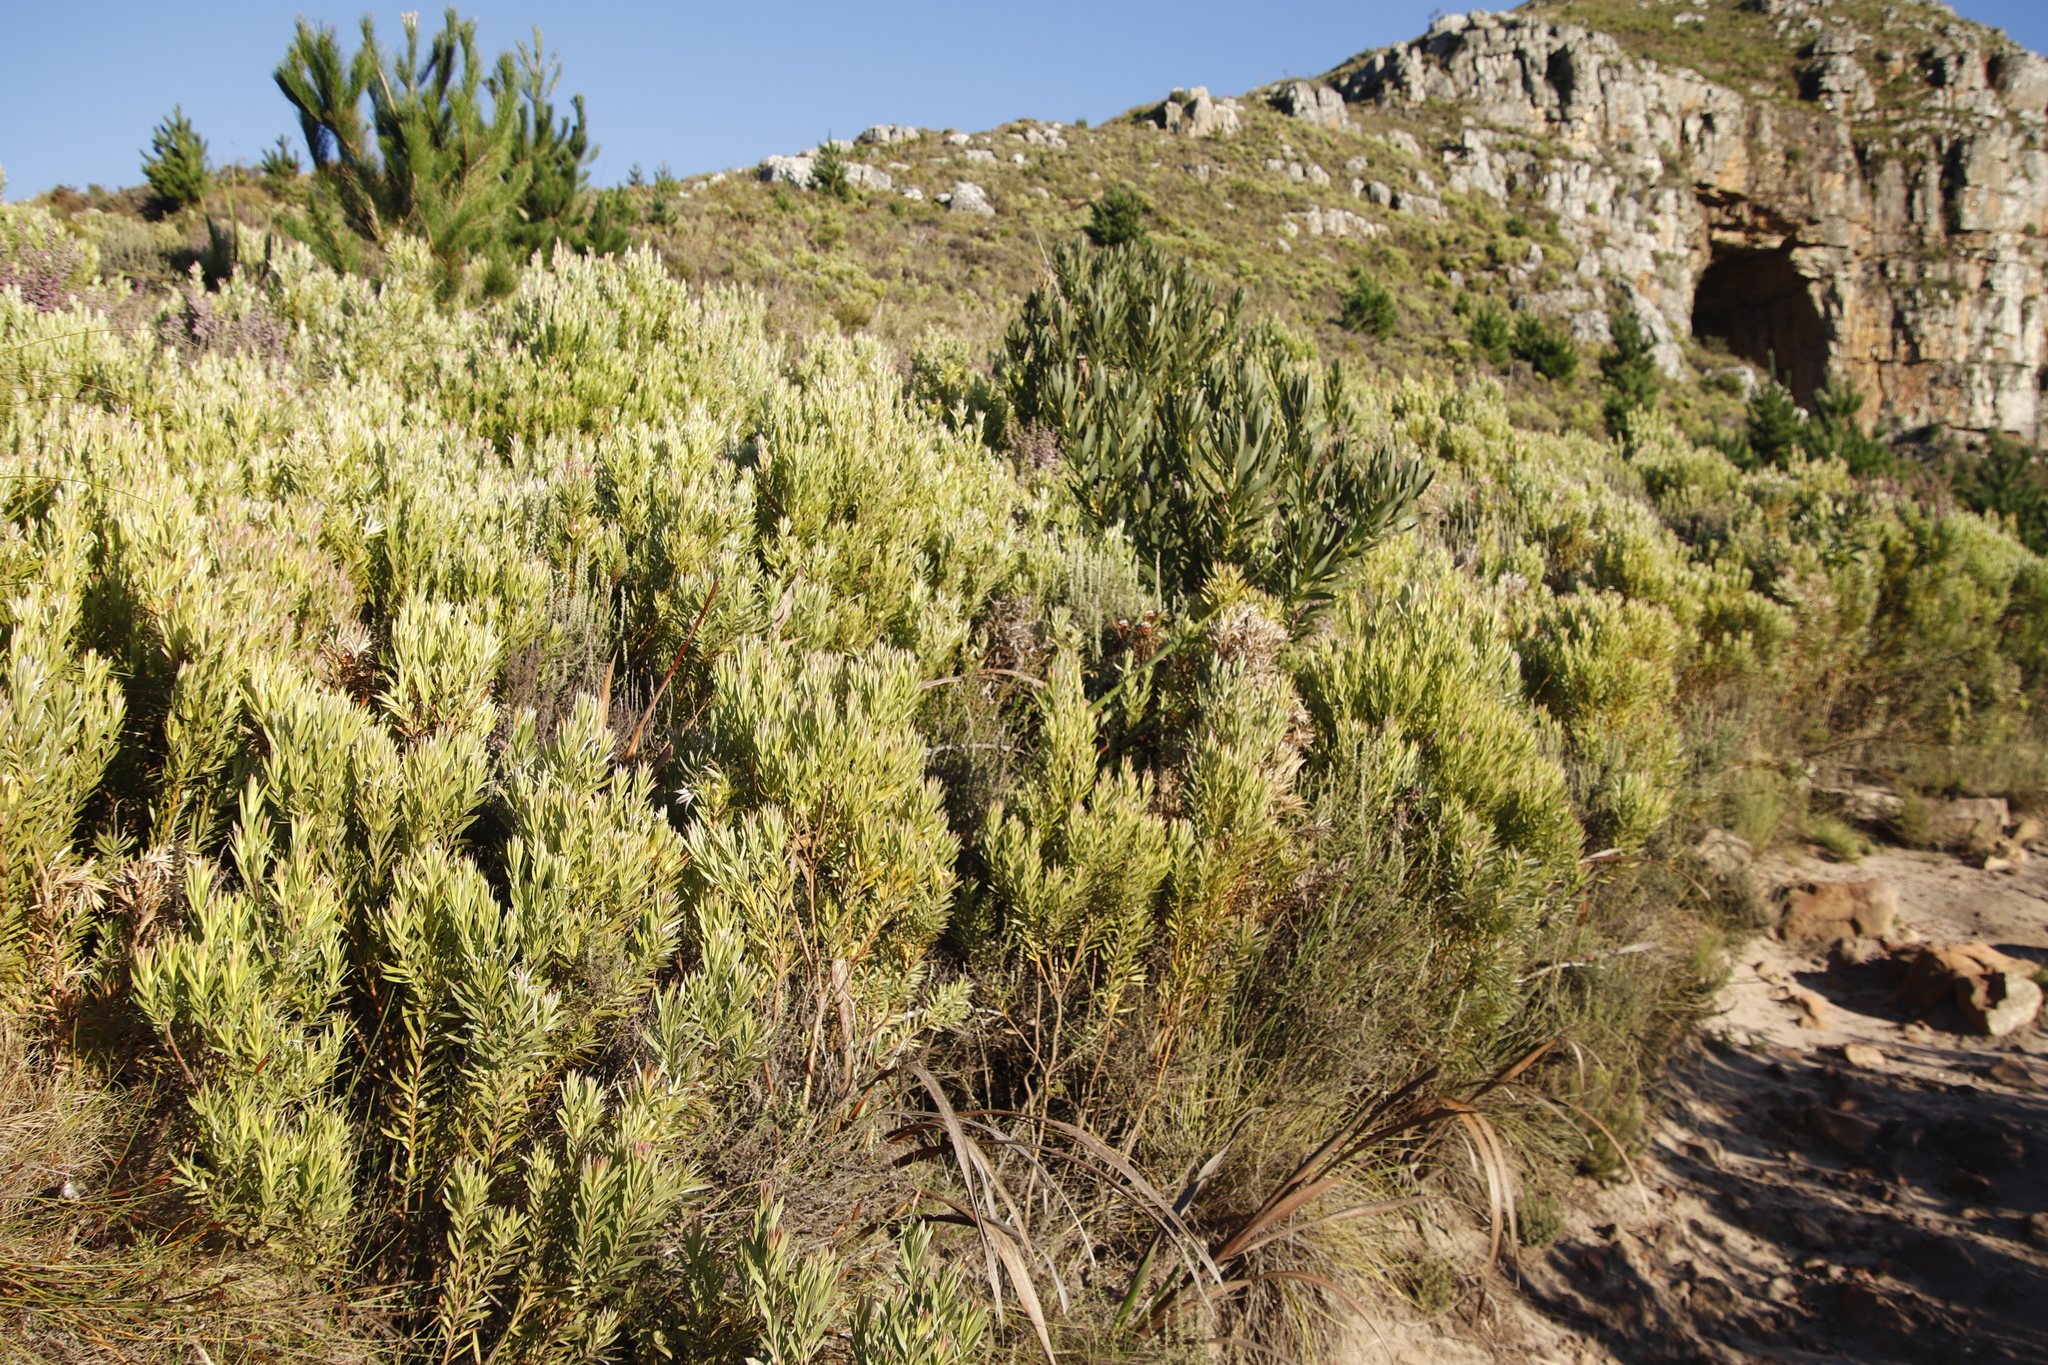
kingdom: Plantae
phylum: Tracheophyta
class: Magnoliopsida
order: Proteales
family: Proteaceae
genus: Leucadendron
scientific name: Leucadendron xanthoconus
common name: Sickle-leaf conebush
